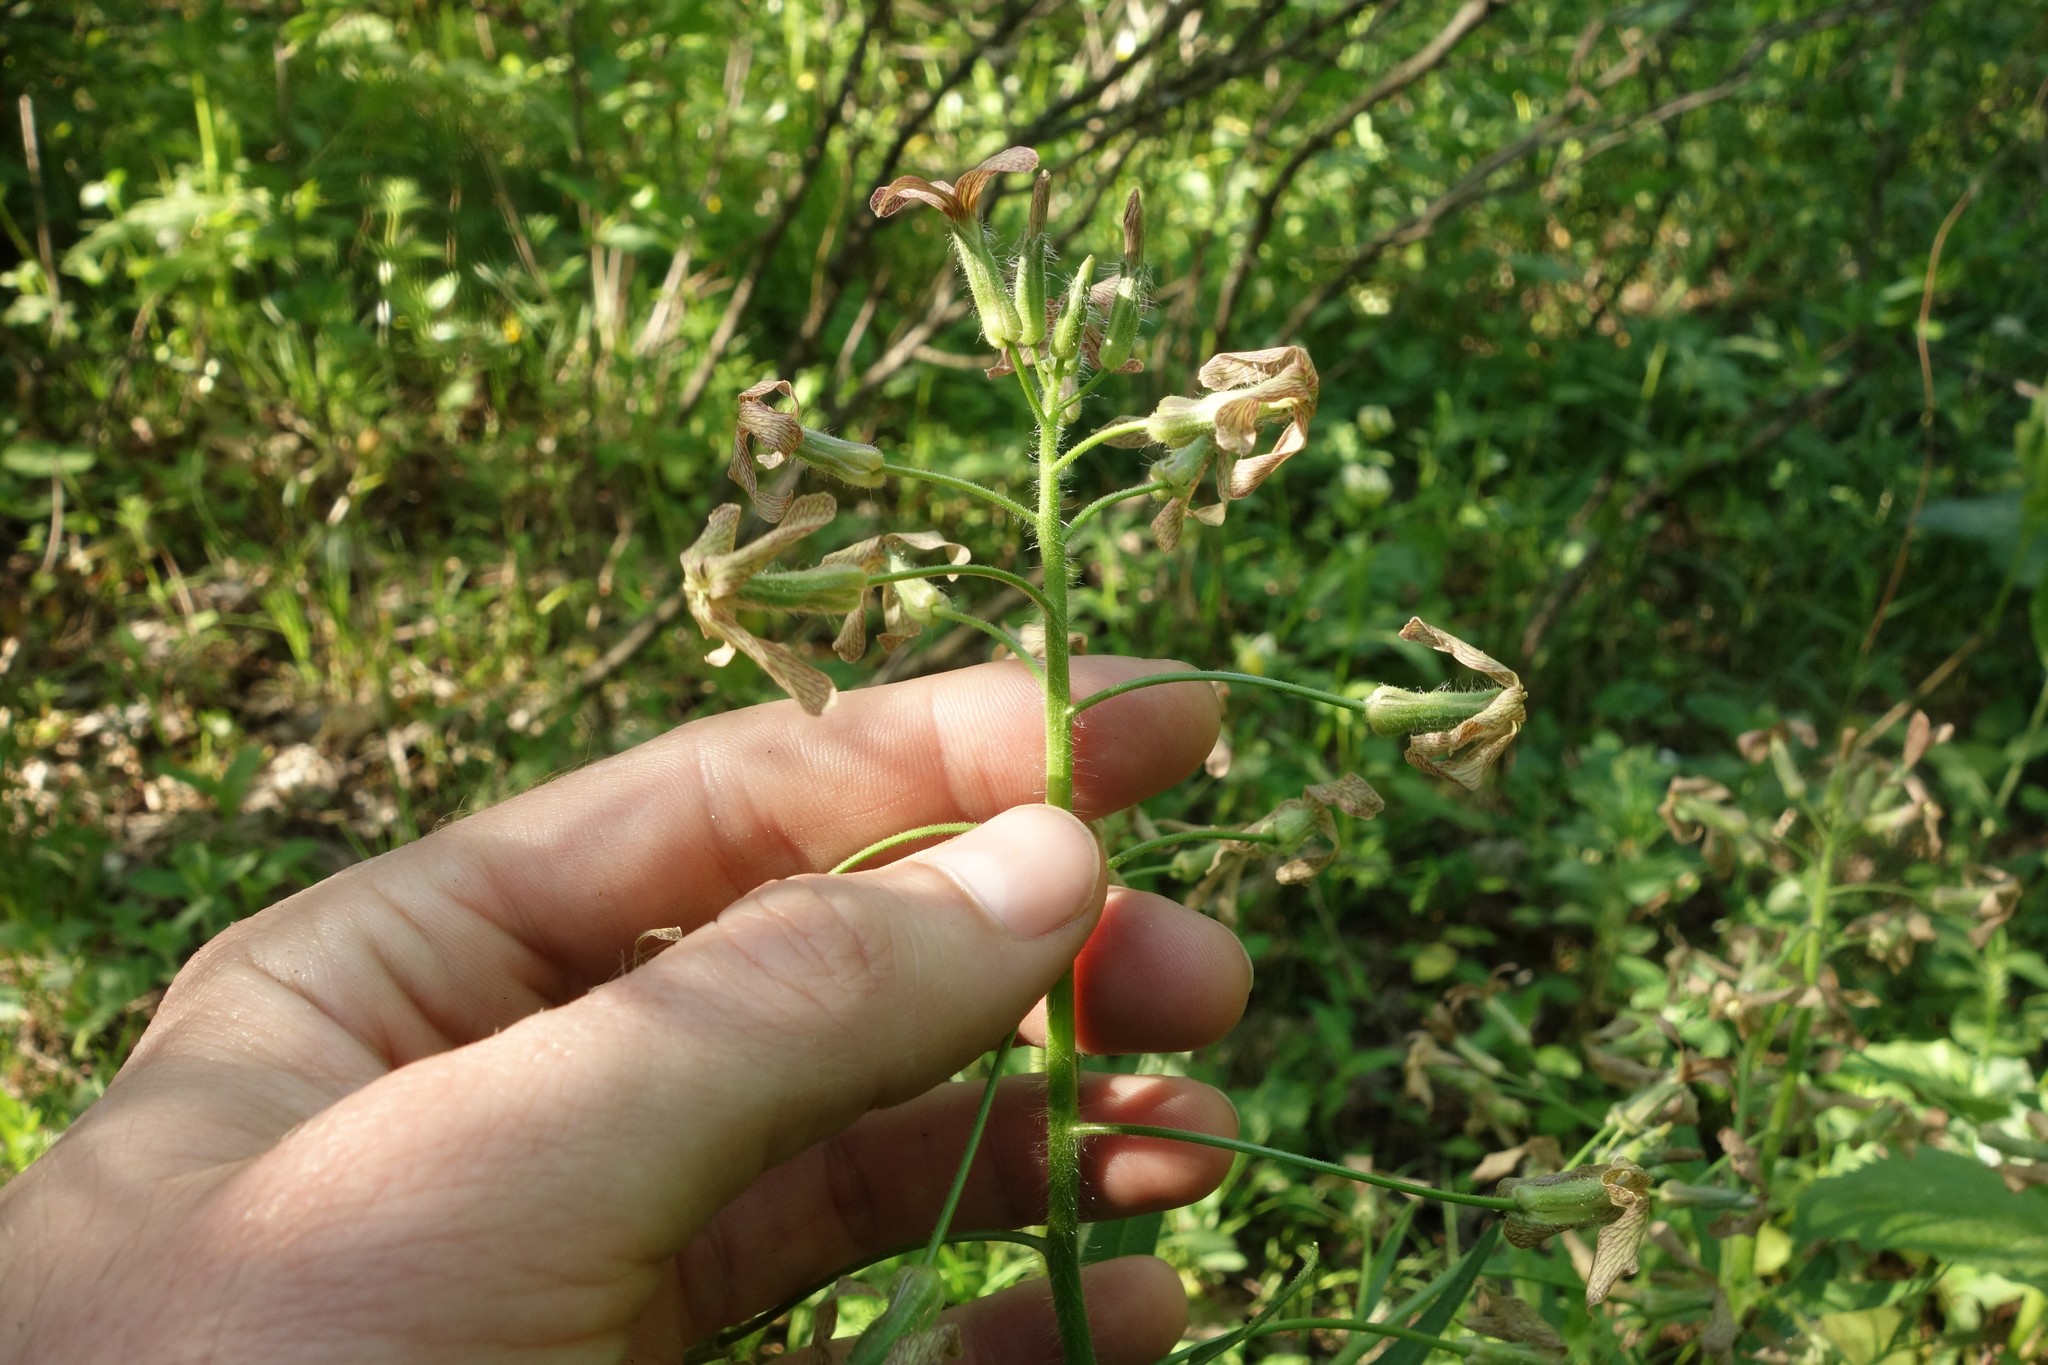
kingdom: Plantae
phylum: Tracheophyta
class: Magnoliopsida
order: Brassicales
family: Brassicaceae
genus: Hesperis
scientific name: Hesperis tristis
